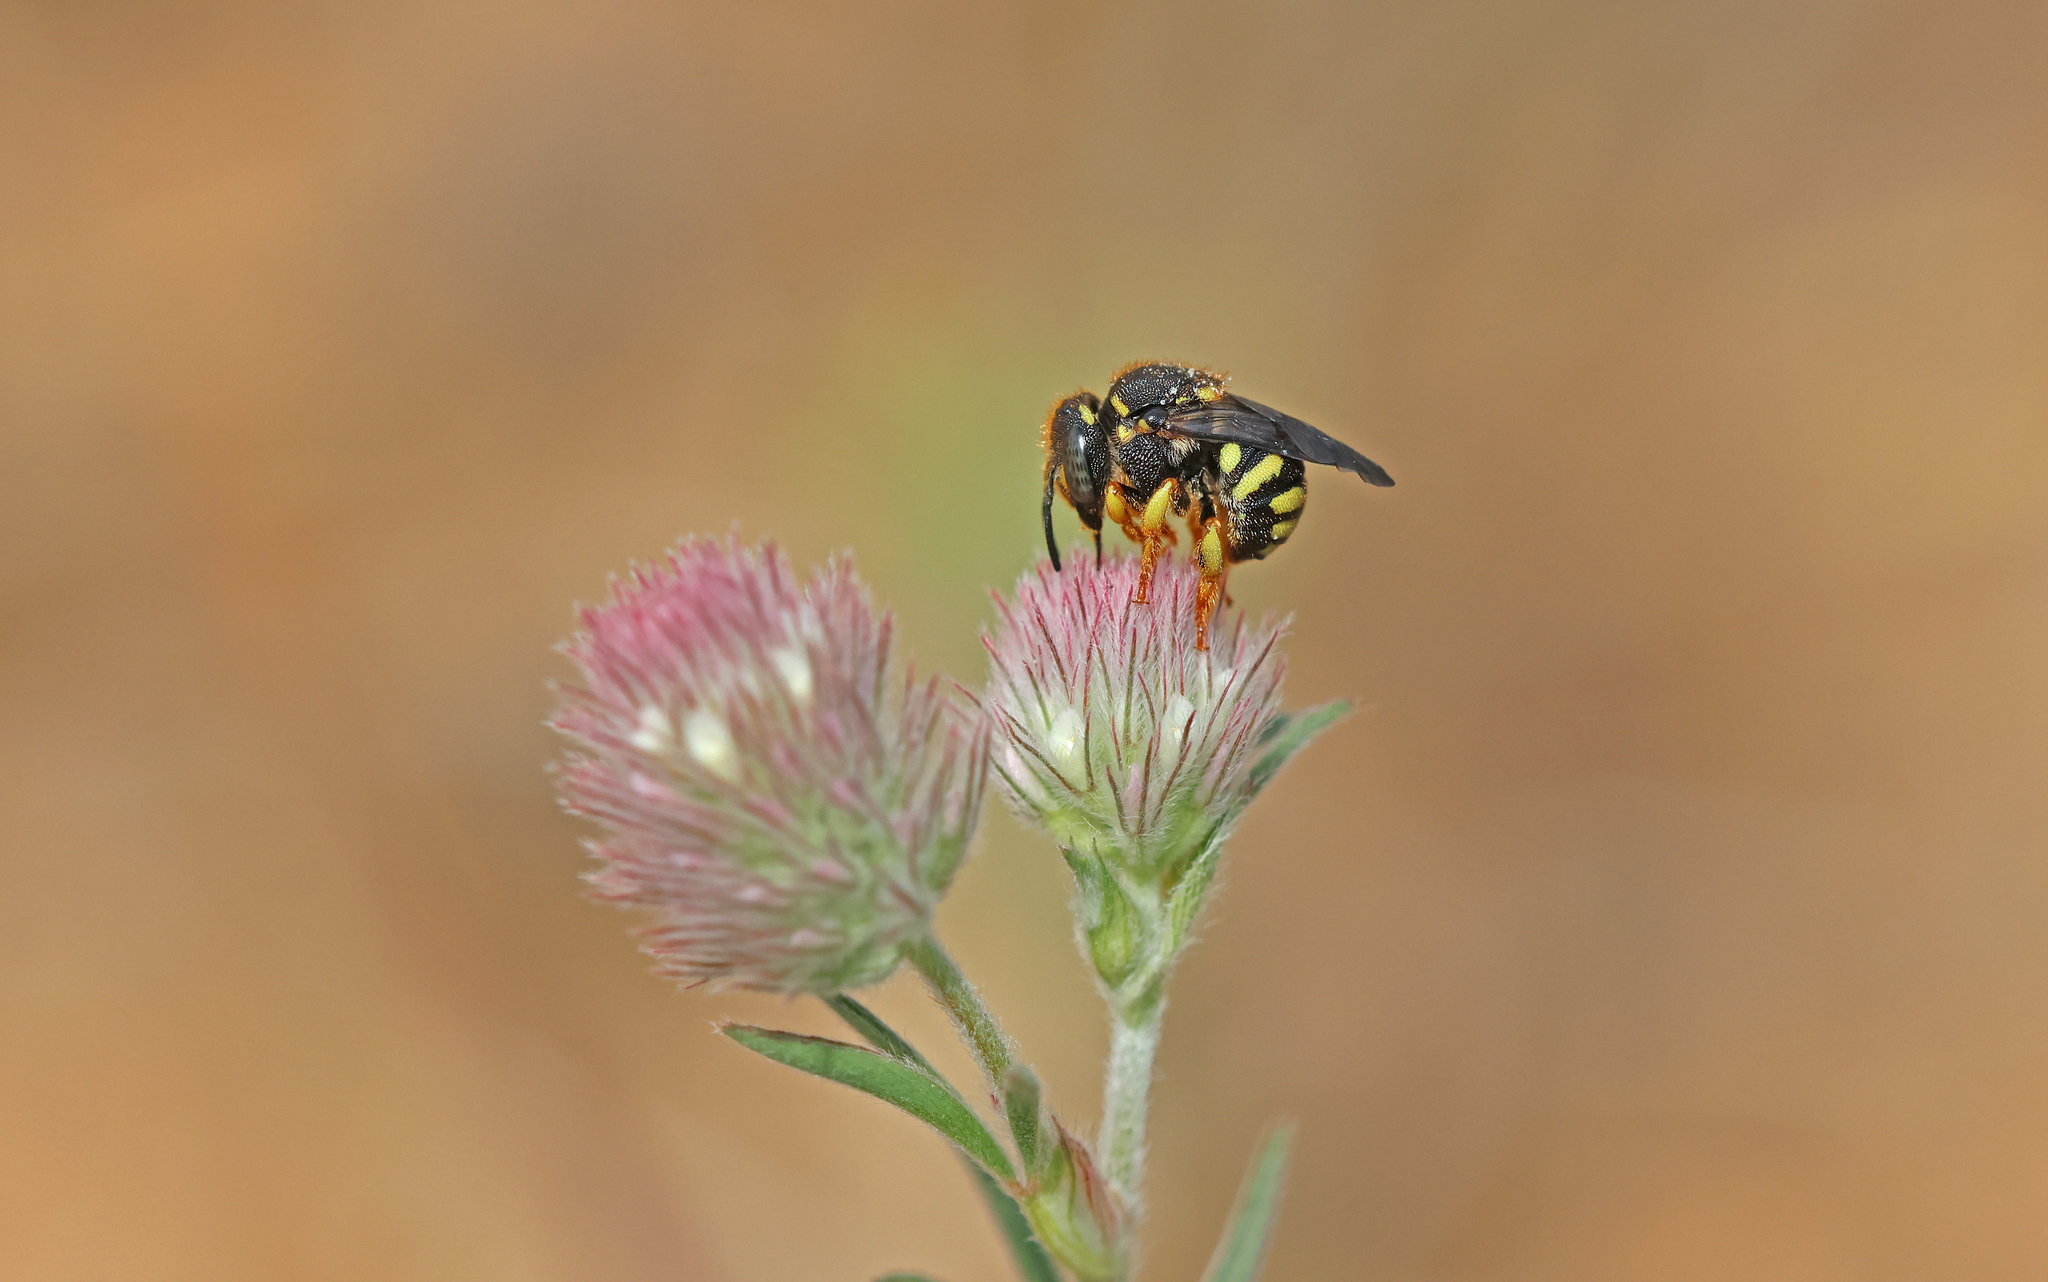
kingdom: Animalia
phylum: Arthropoda
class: Insecta
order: Hymenoptera
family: Megachilidae
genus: Anthidiellum
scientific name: Anthidiellum strigatum
